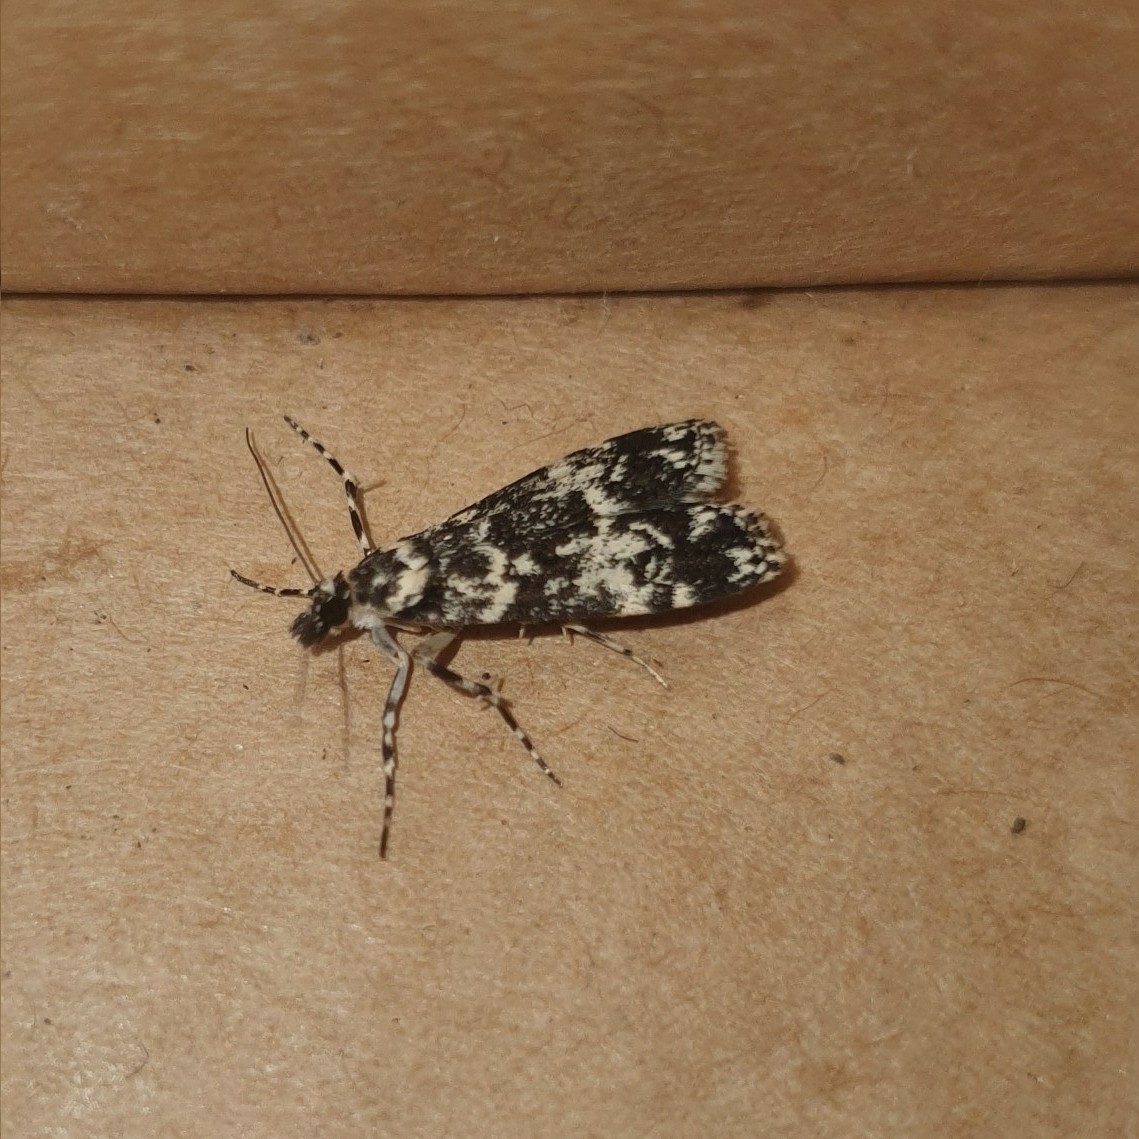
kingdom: Animalia
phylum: Arthropoda
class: Insecta
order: Lepidoptera
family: Crambidae
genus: Scoparia
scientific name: Scoparia exhibitalis
